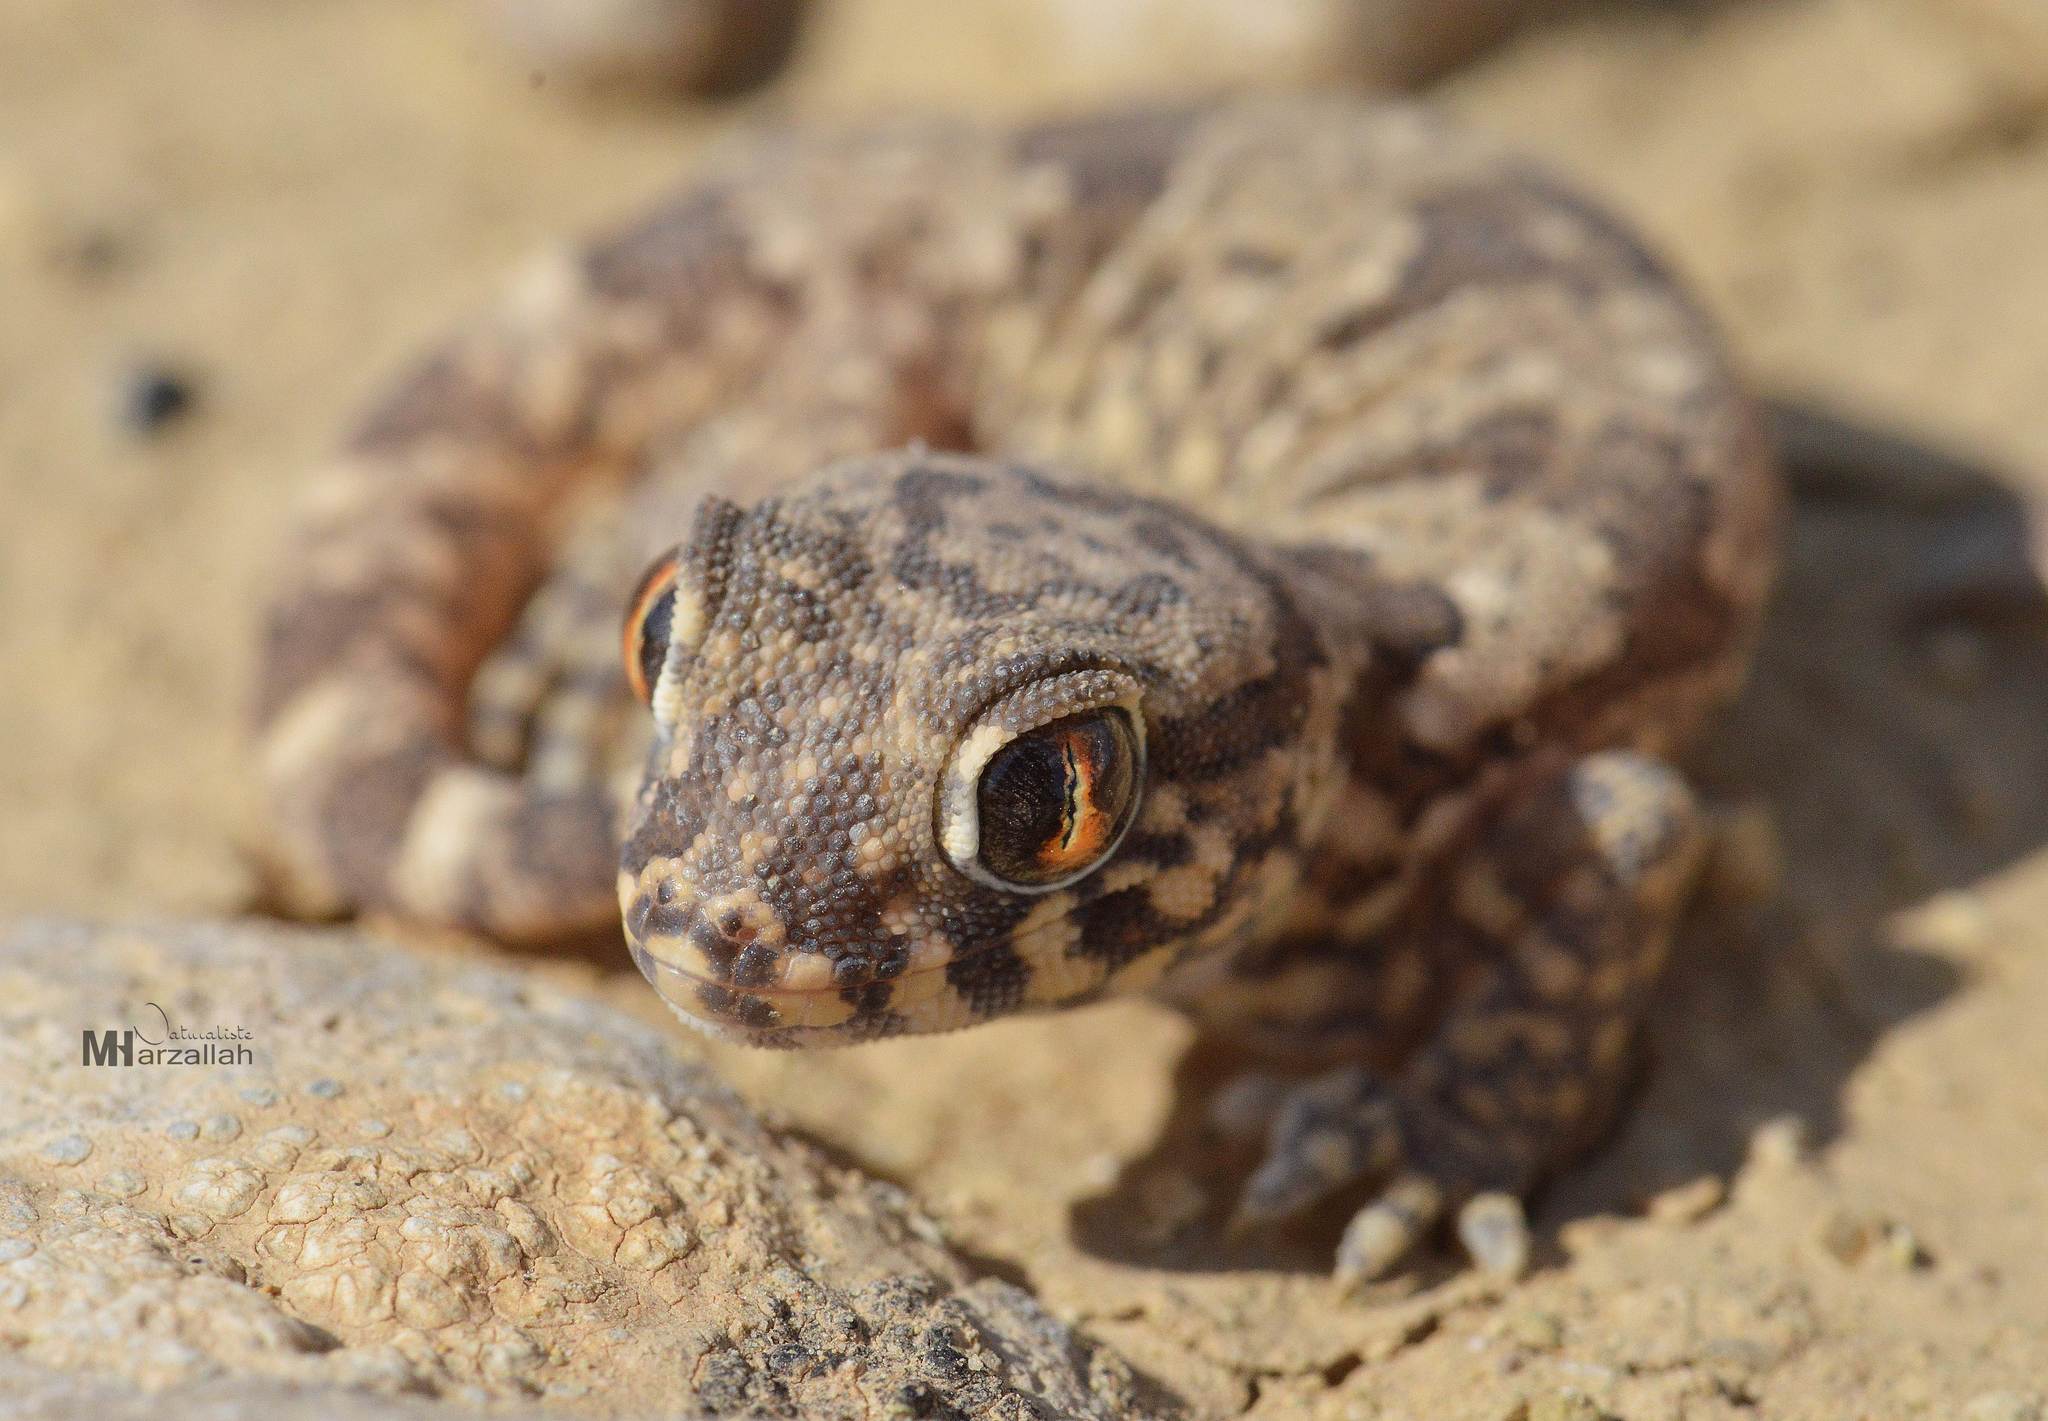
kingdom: Animalia
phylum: Chordata
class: Squamata
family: Gekkonidae
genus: Stenodactylus
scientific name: Stenodactylus mauritanicus
